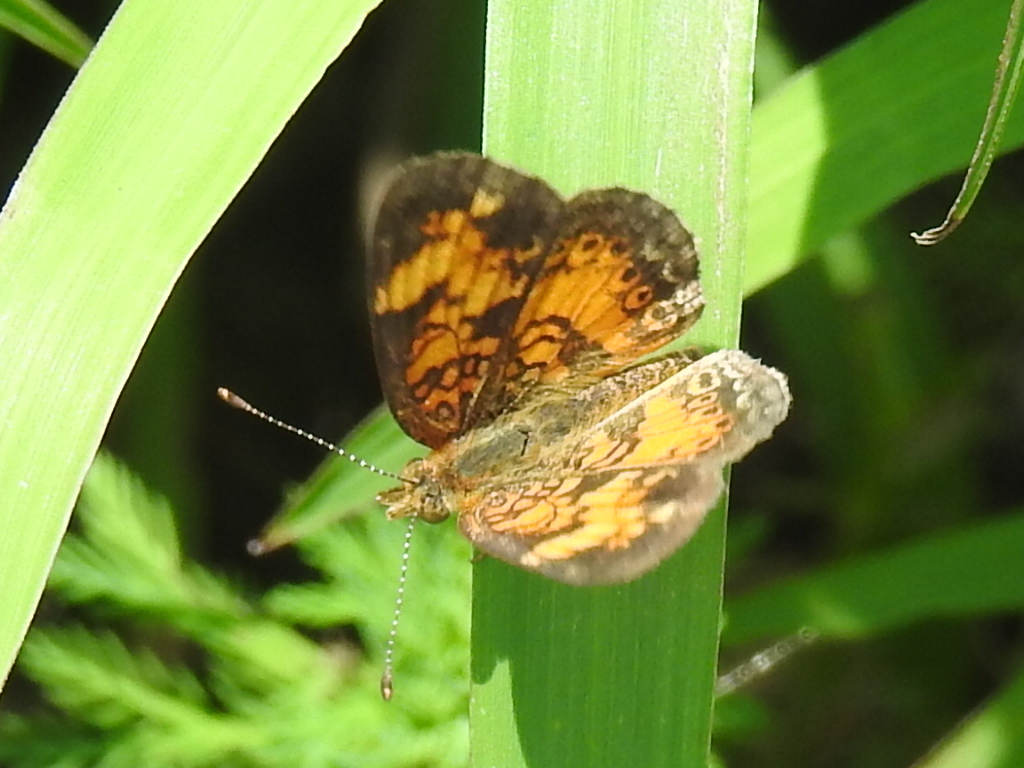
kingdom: Animalia
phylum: Arthropoda
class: Insecta
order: Lepidoptera
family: Nymphalidae
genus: Phyciodes
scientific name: Phyciodes tharos
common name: Pearl crescent
